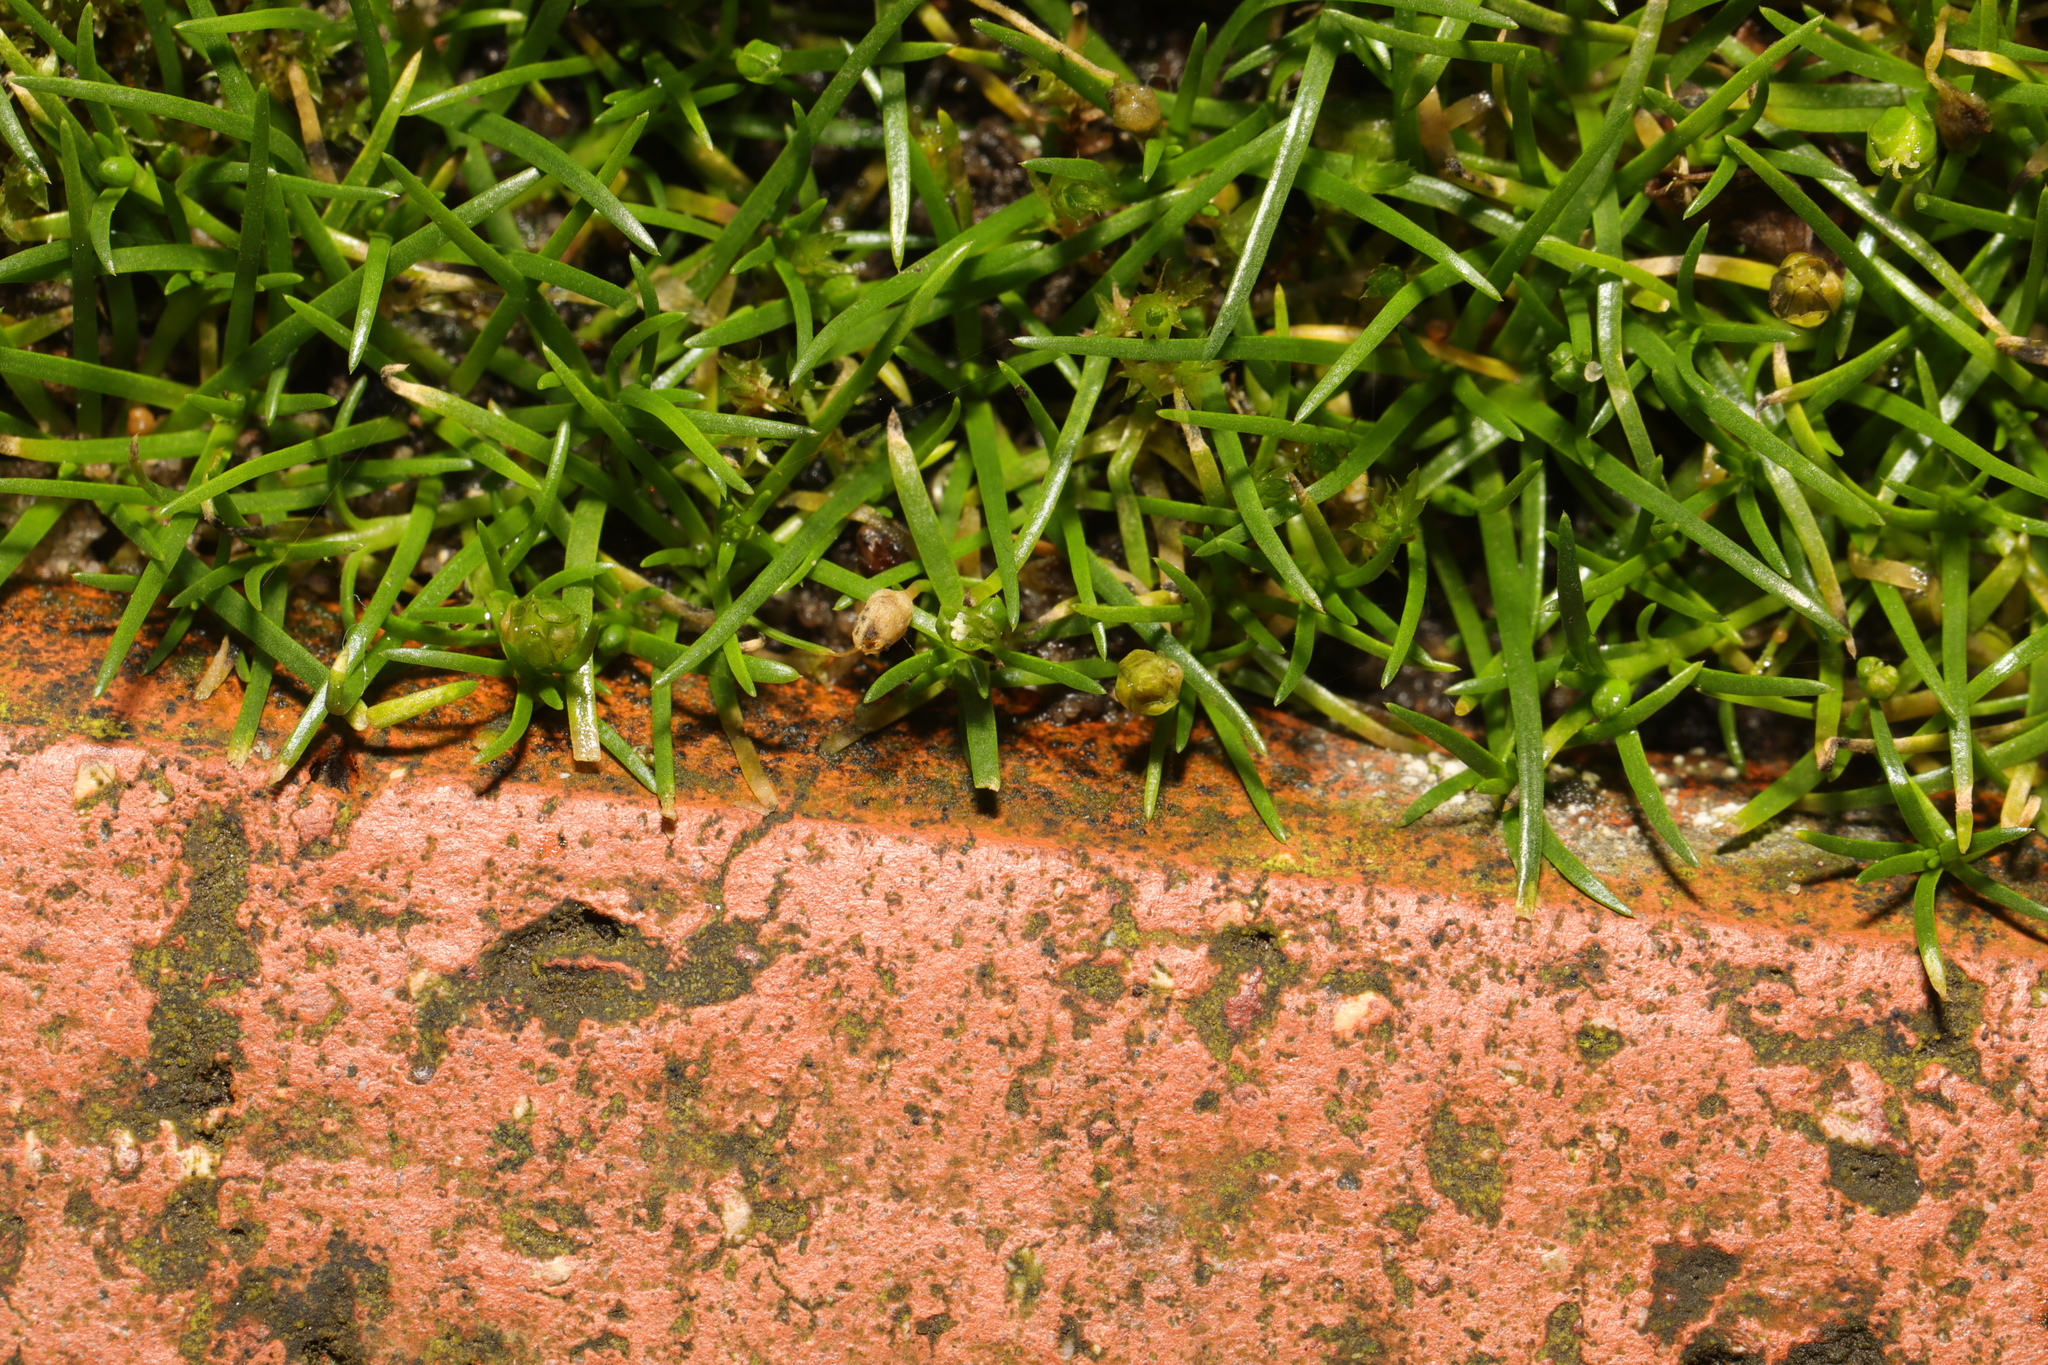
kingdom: Plantae
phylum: Tracheophyta
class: Magnoliopsida
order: Caryophyllales
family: Caryophyllaceae
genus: Sagina
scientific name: Sagina procumbens
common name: Procumbent pearlwort
